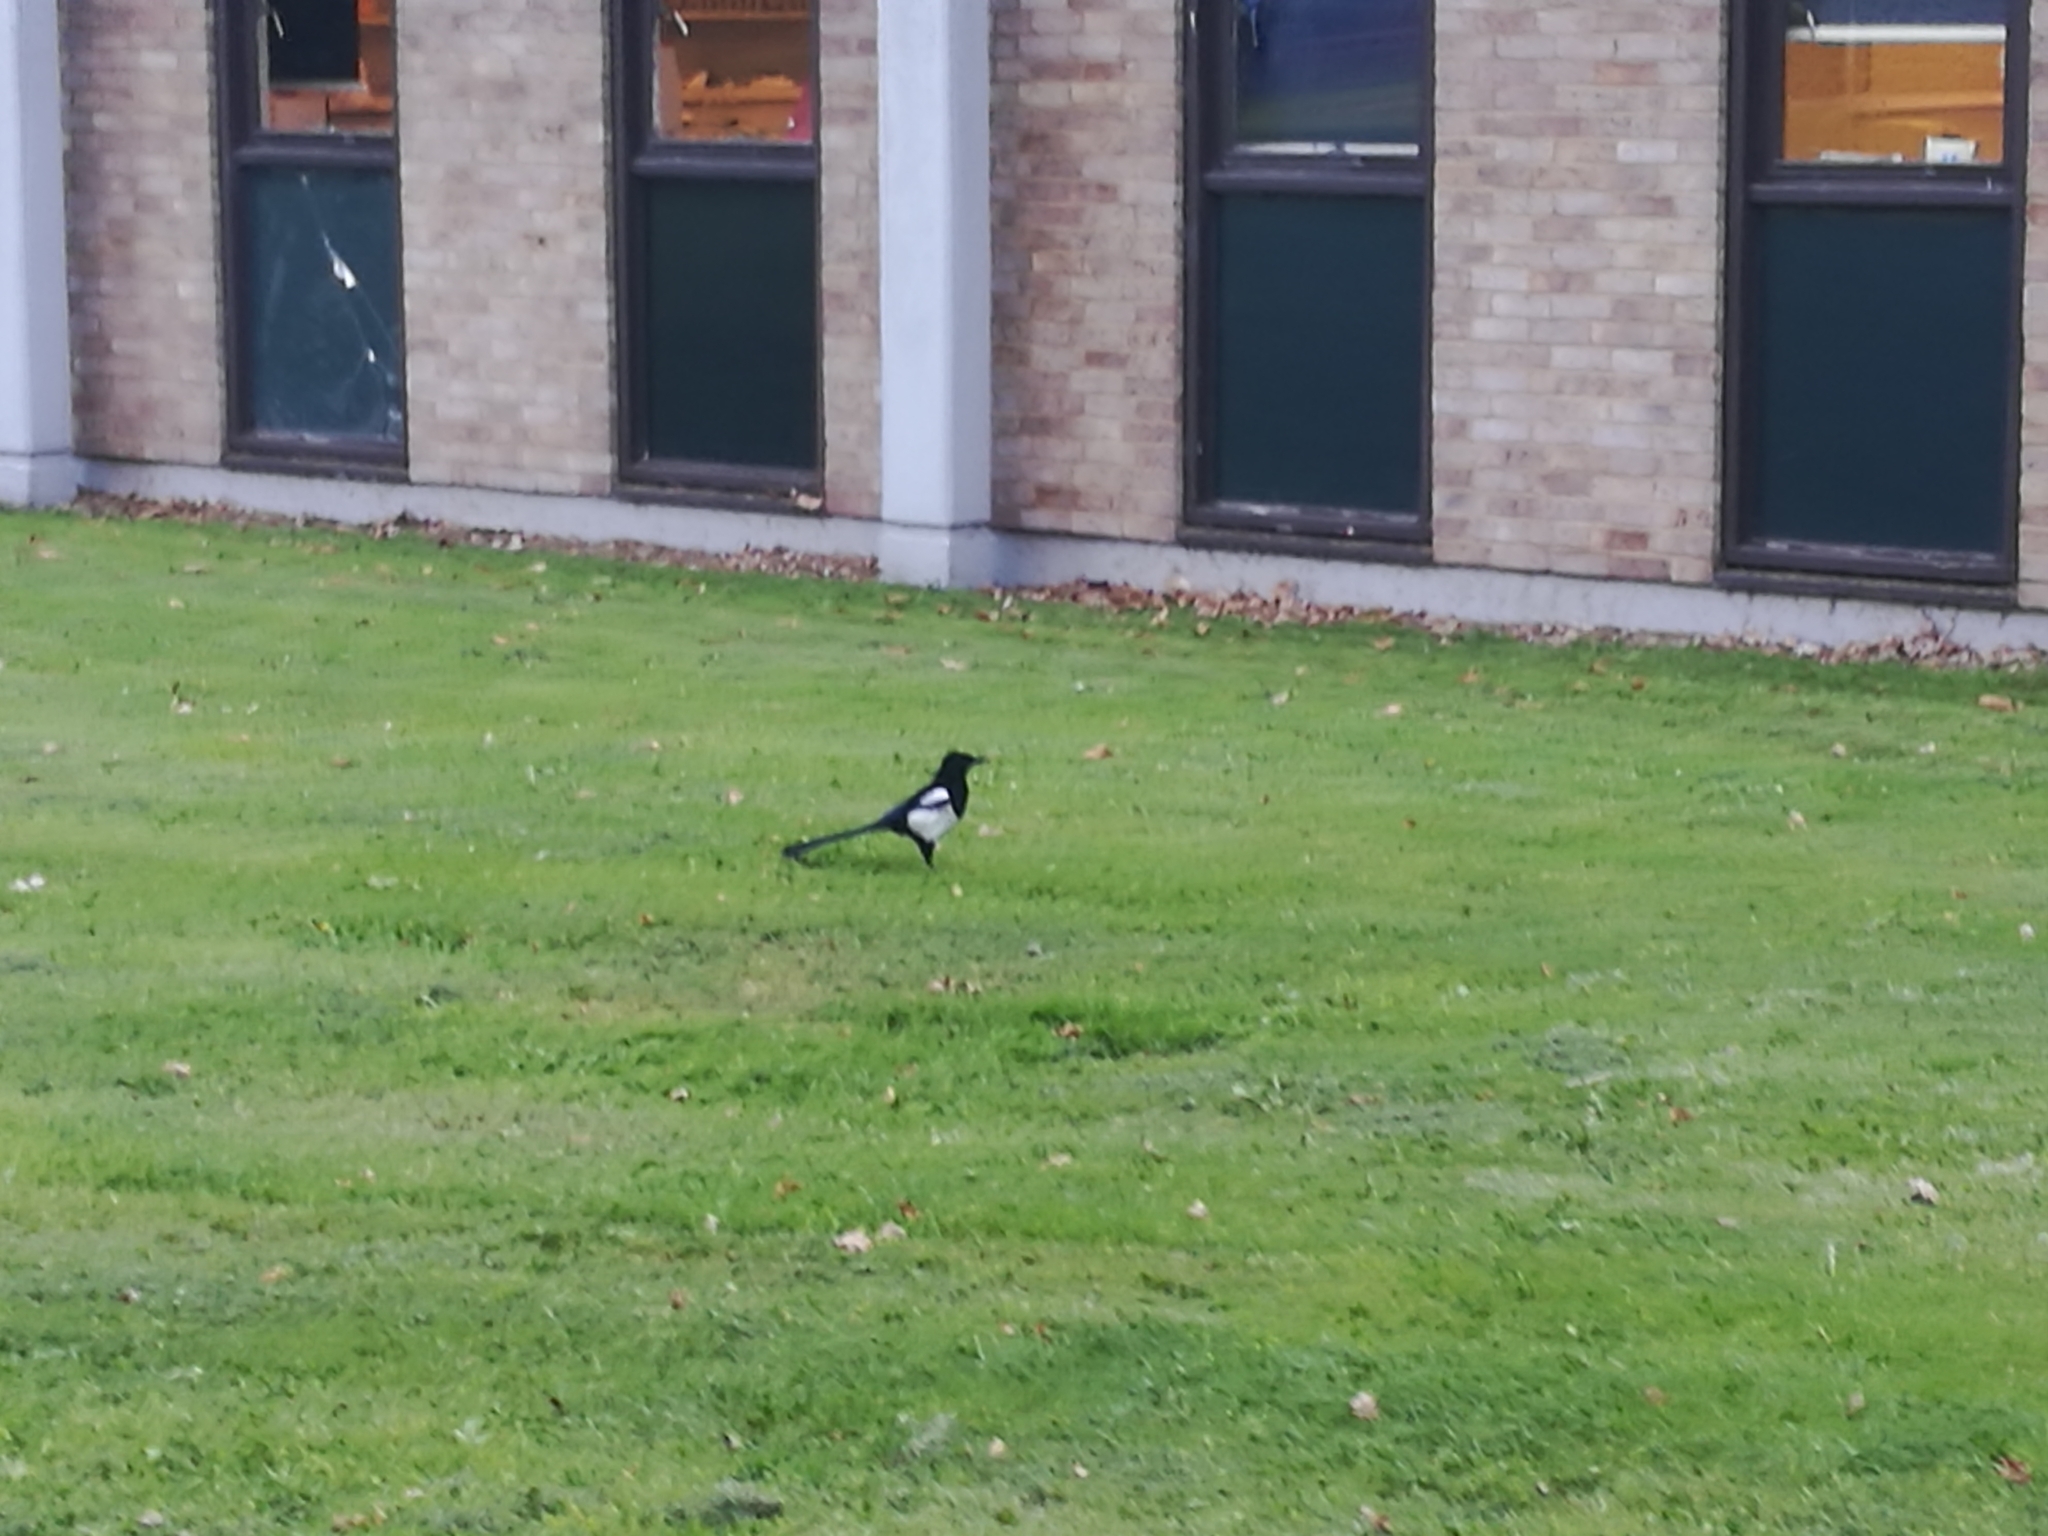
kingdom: Animalia
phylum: Chordata
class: Aves
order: Passeriformes
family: Corvidae
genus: Pica
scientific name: Pica pica
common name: Eurasian magpie
